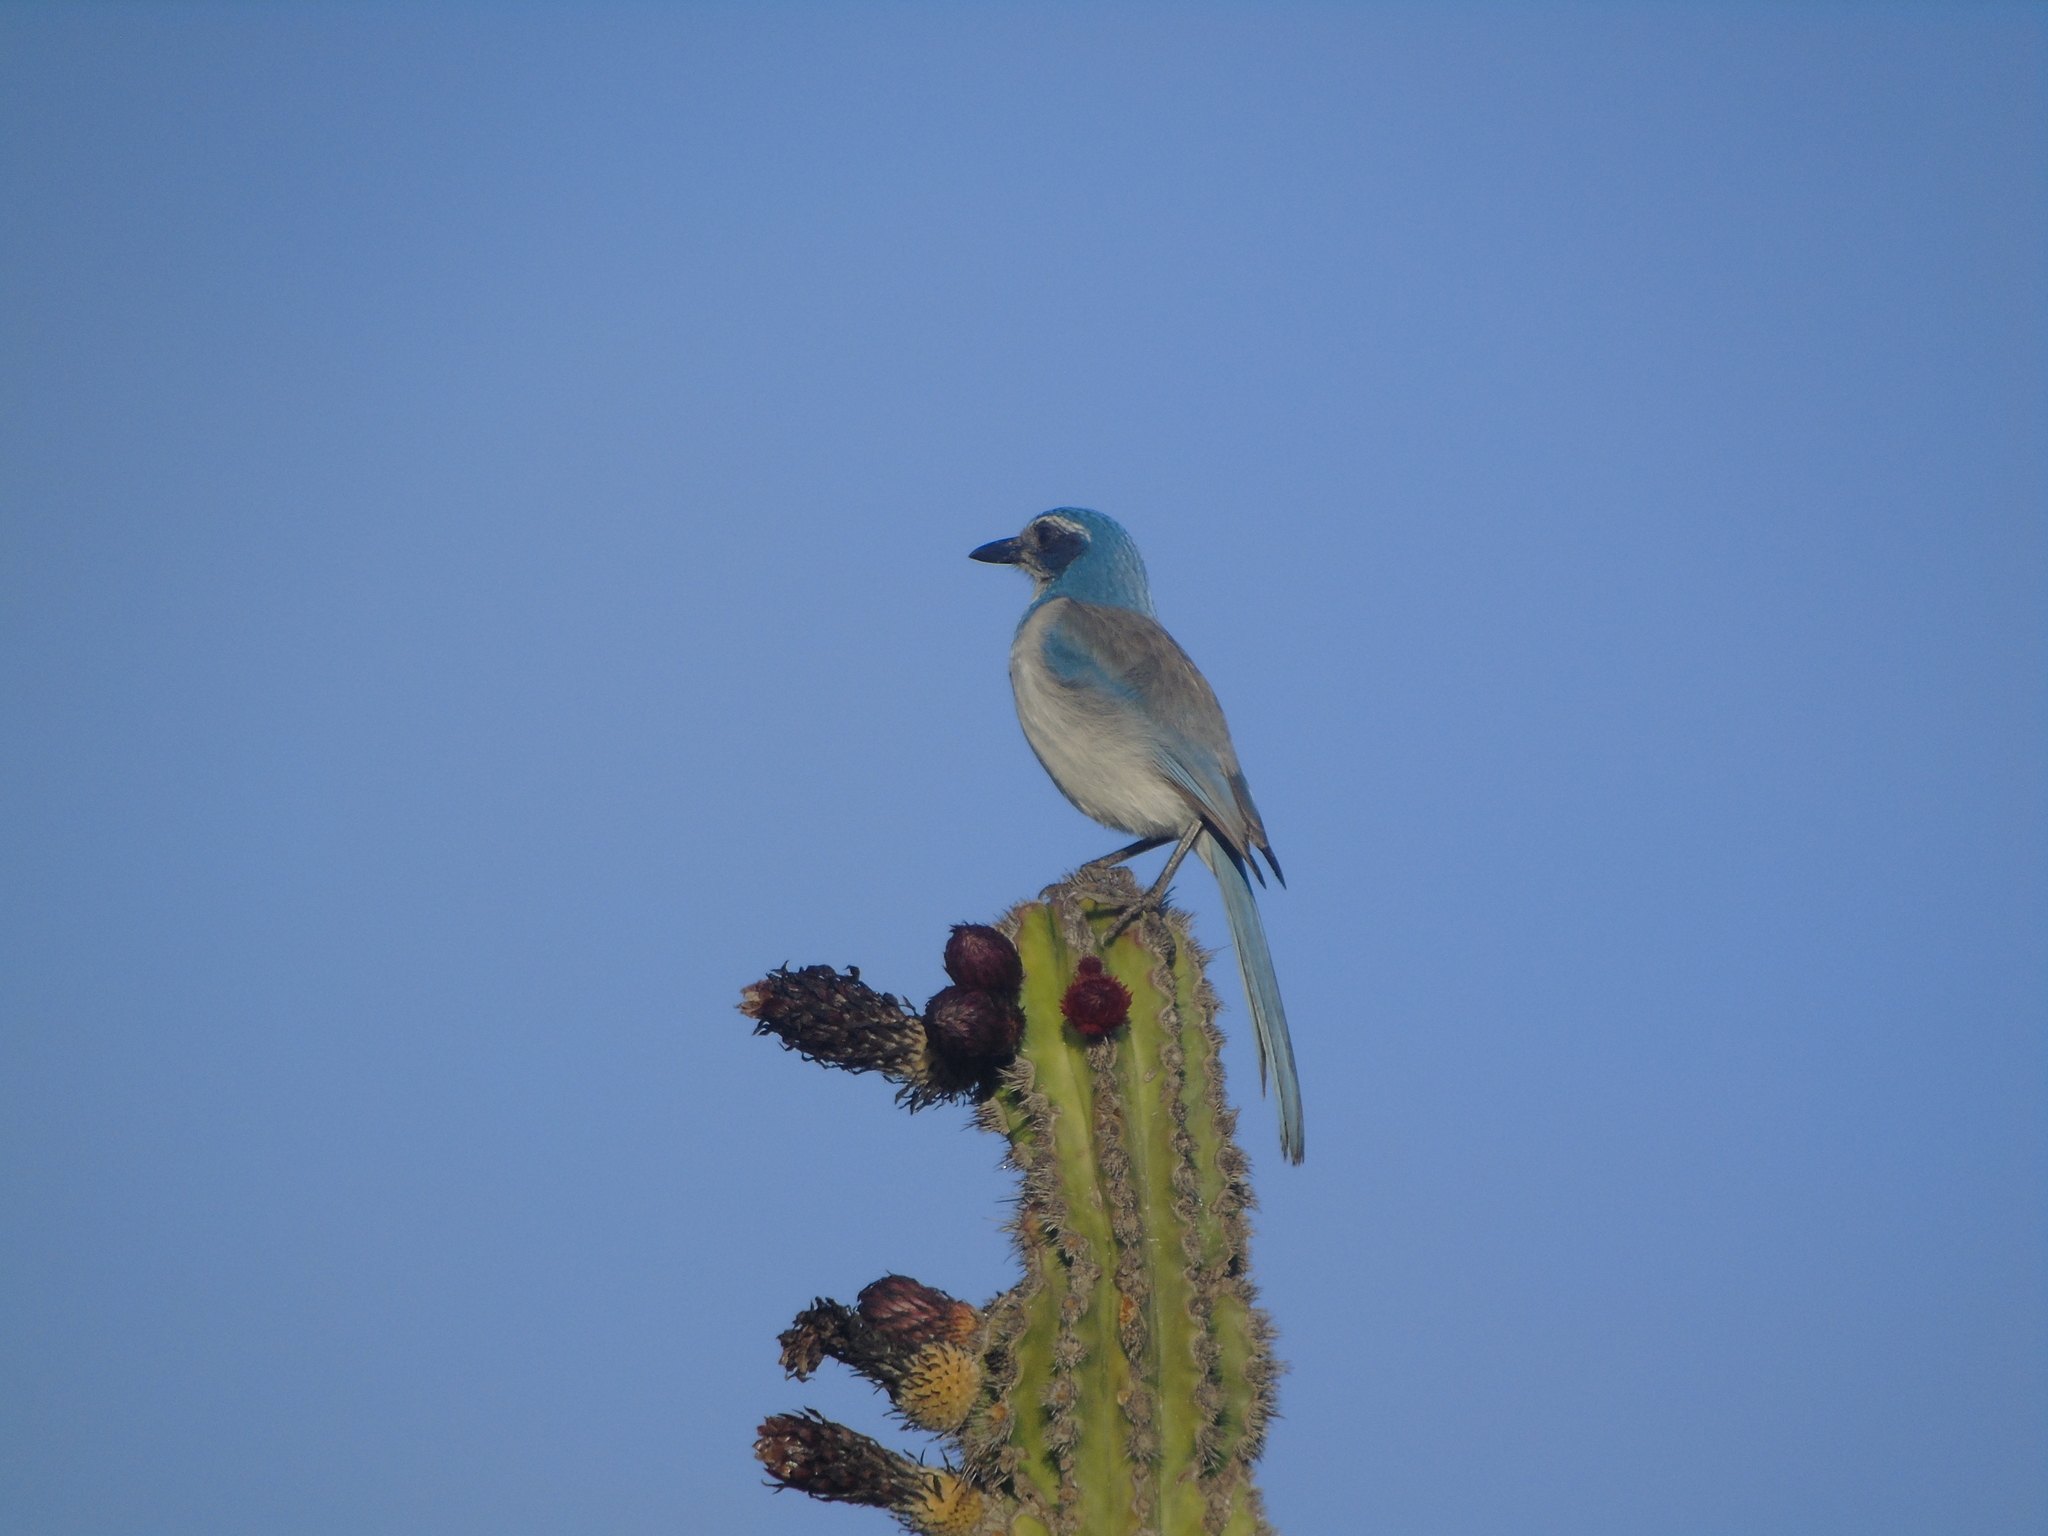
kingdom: Animalia
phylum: Chordata
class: Aves
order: Passeriformes
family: Corvidae
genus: Aphelocoma
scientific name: Aphelocoma californica
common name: California scrub-jay
